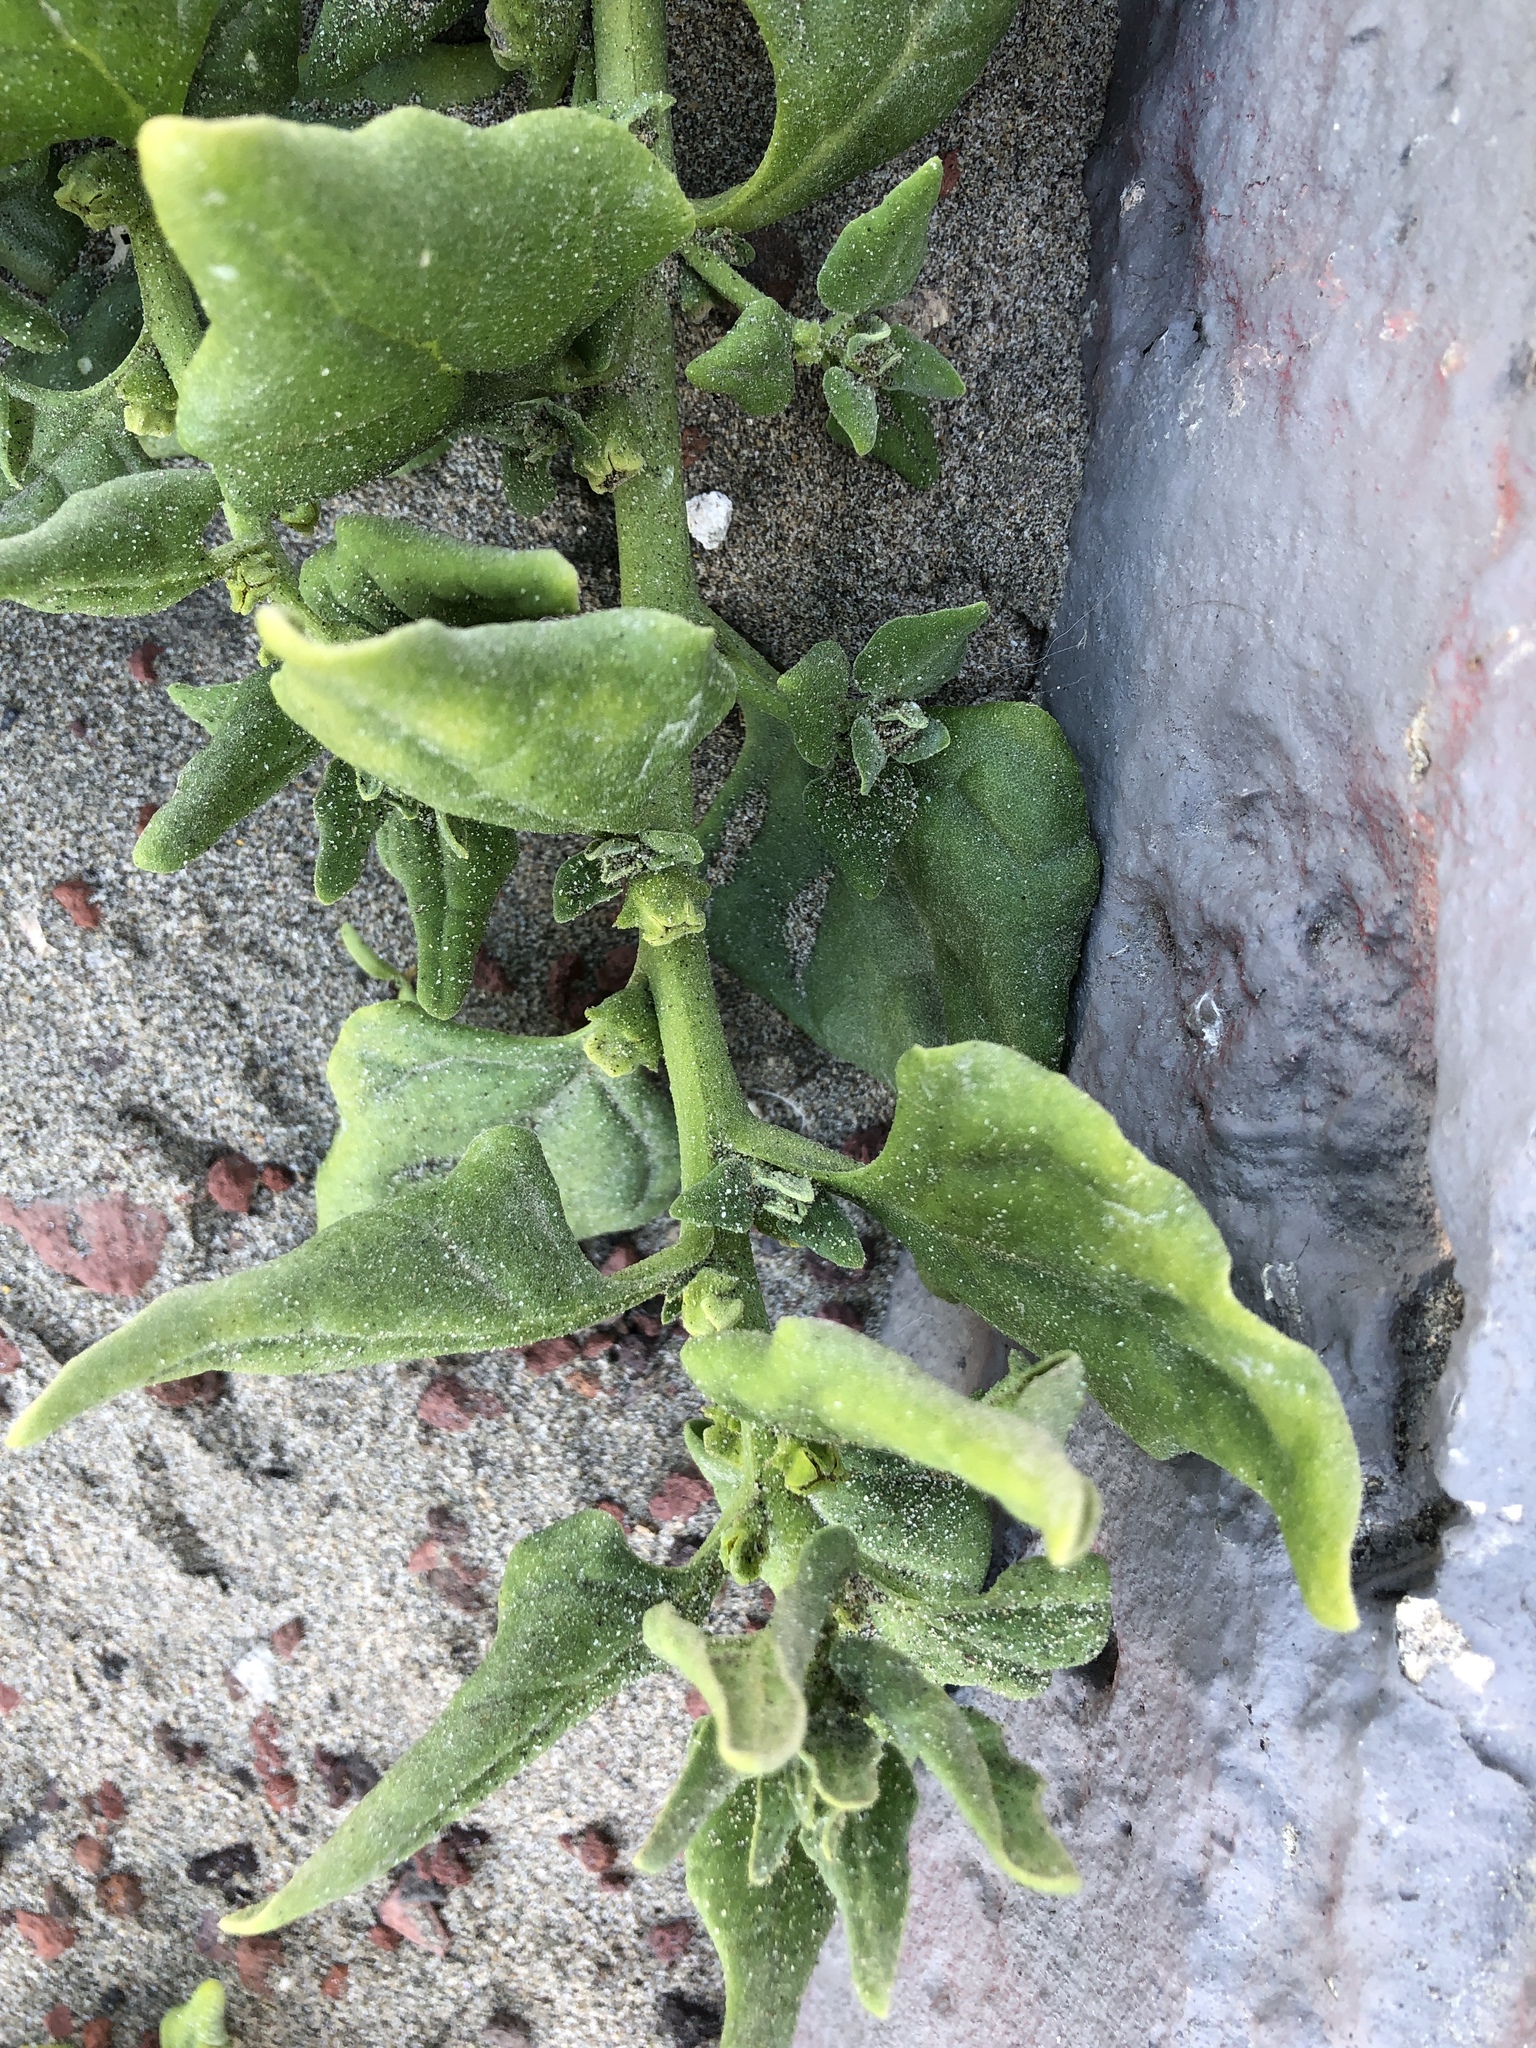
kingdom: Plantae
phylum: Tracheophyta
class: Magnoliopsida
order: Caryophyllales
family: Aizoaceae
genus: Tetragonia
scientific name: Tetragonia tetragonoides
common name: New zealand-spinach
